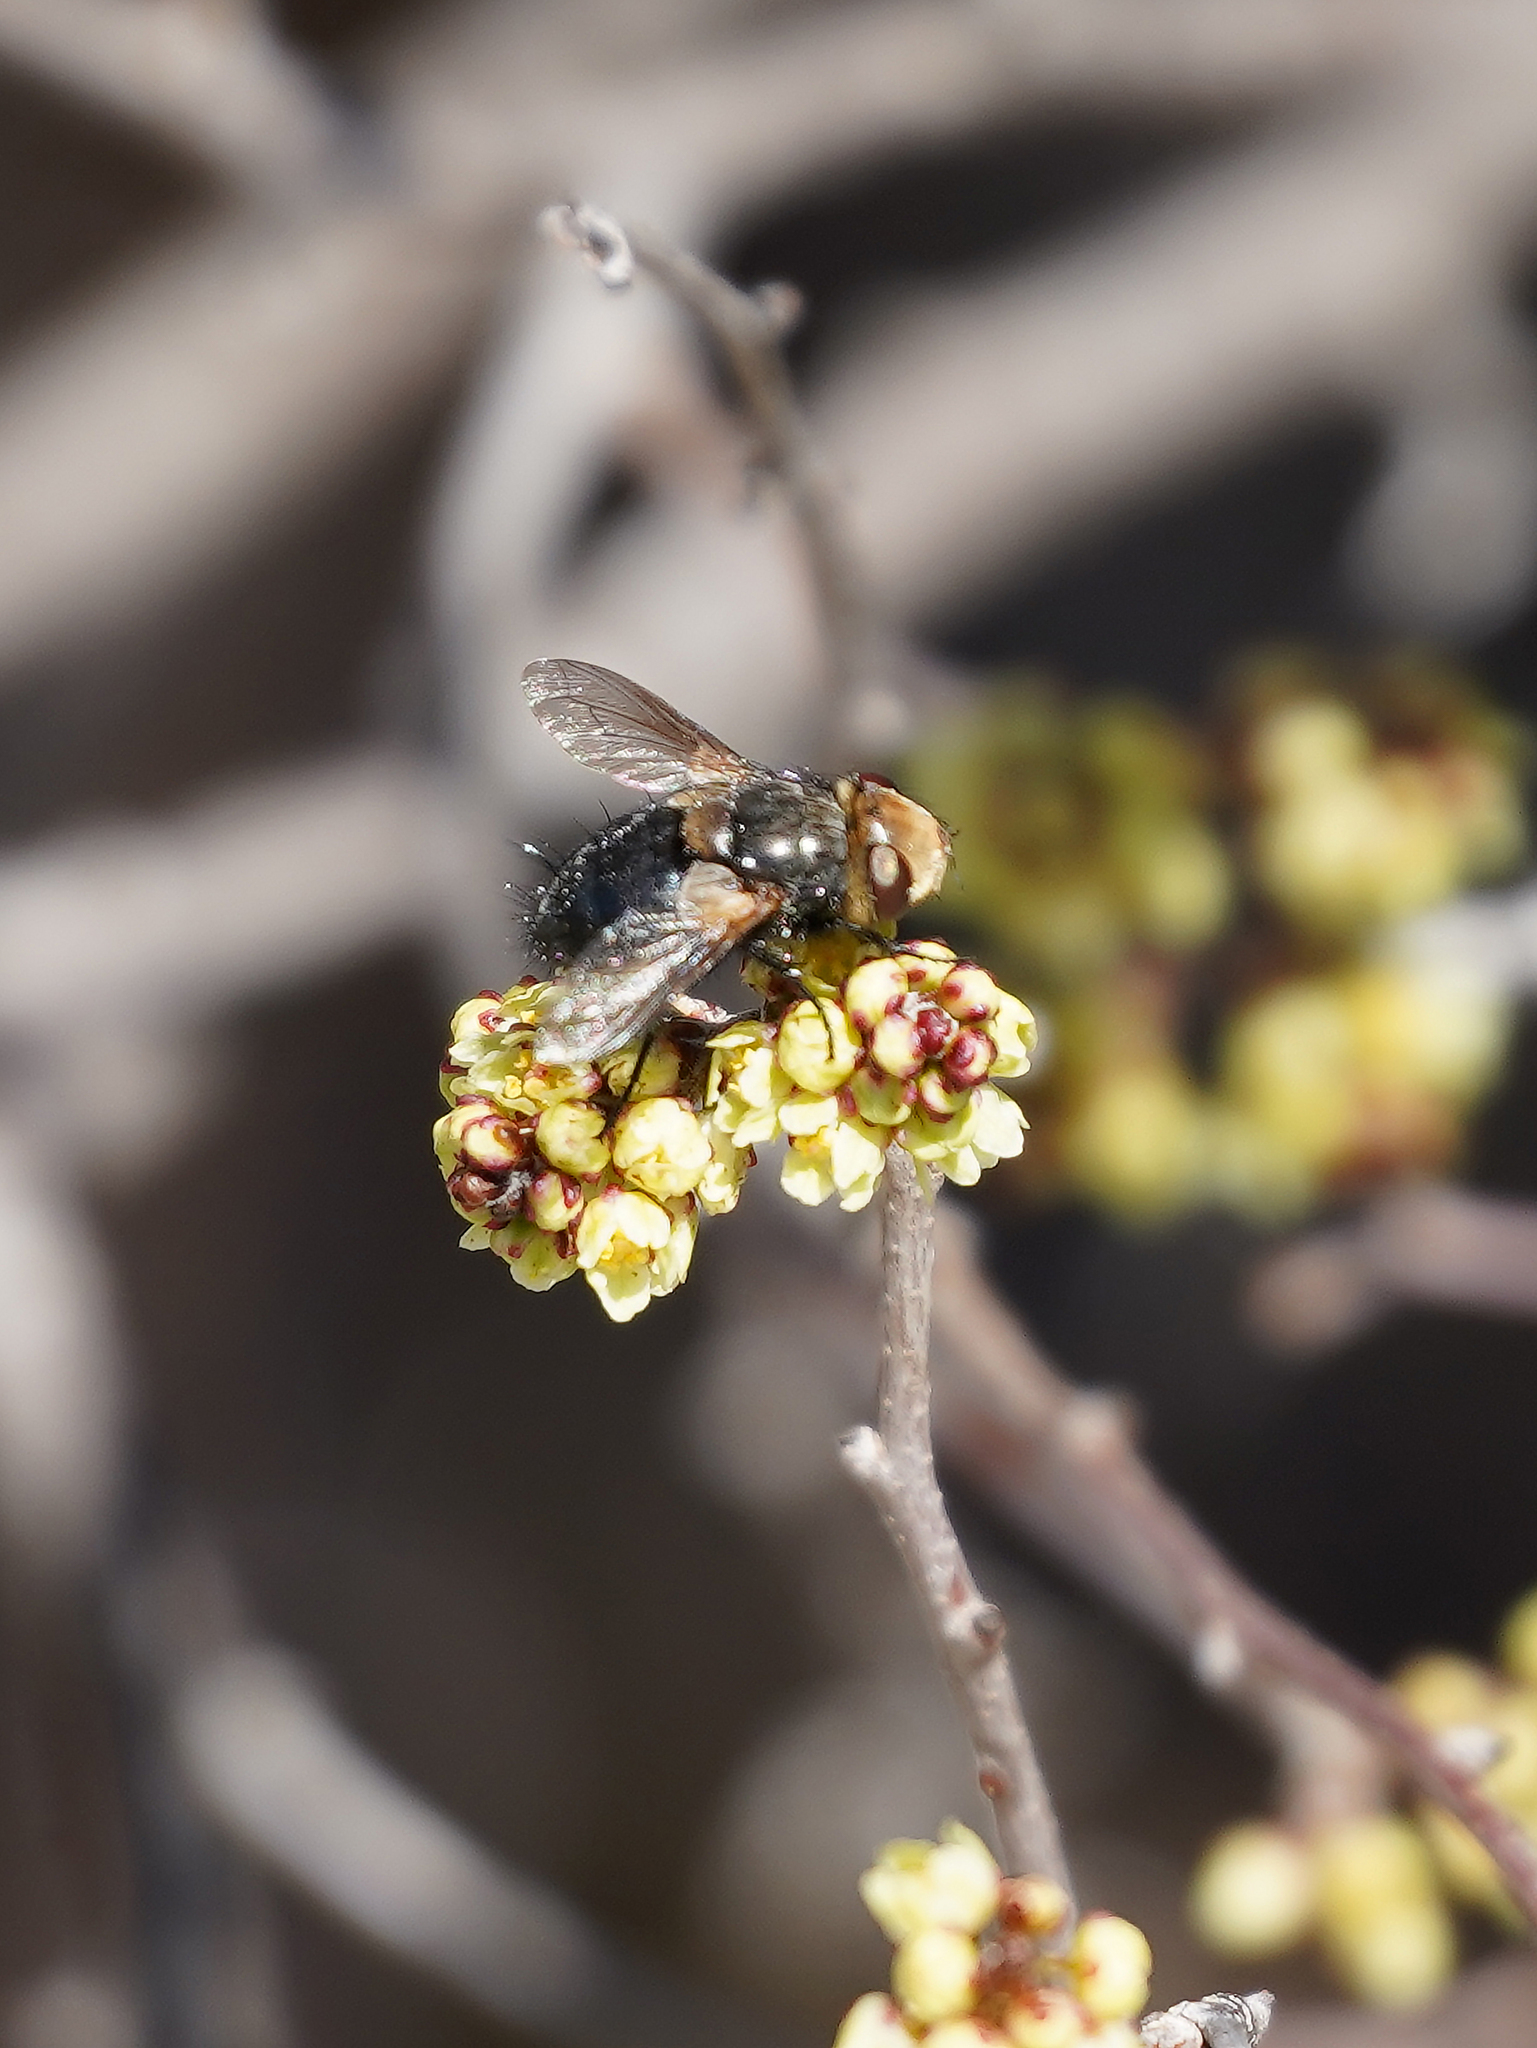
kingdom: Animalia
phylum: Arthropoda
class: Insecta
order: Diptera
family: Tachinidae
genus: Archytas
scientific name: Archytas apicifer
